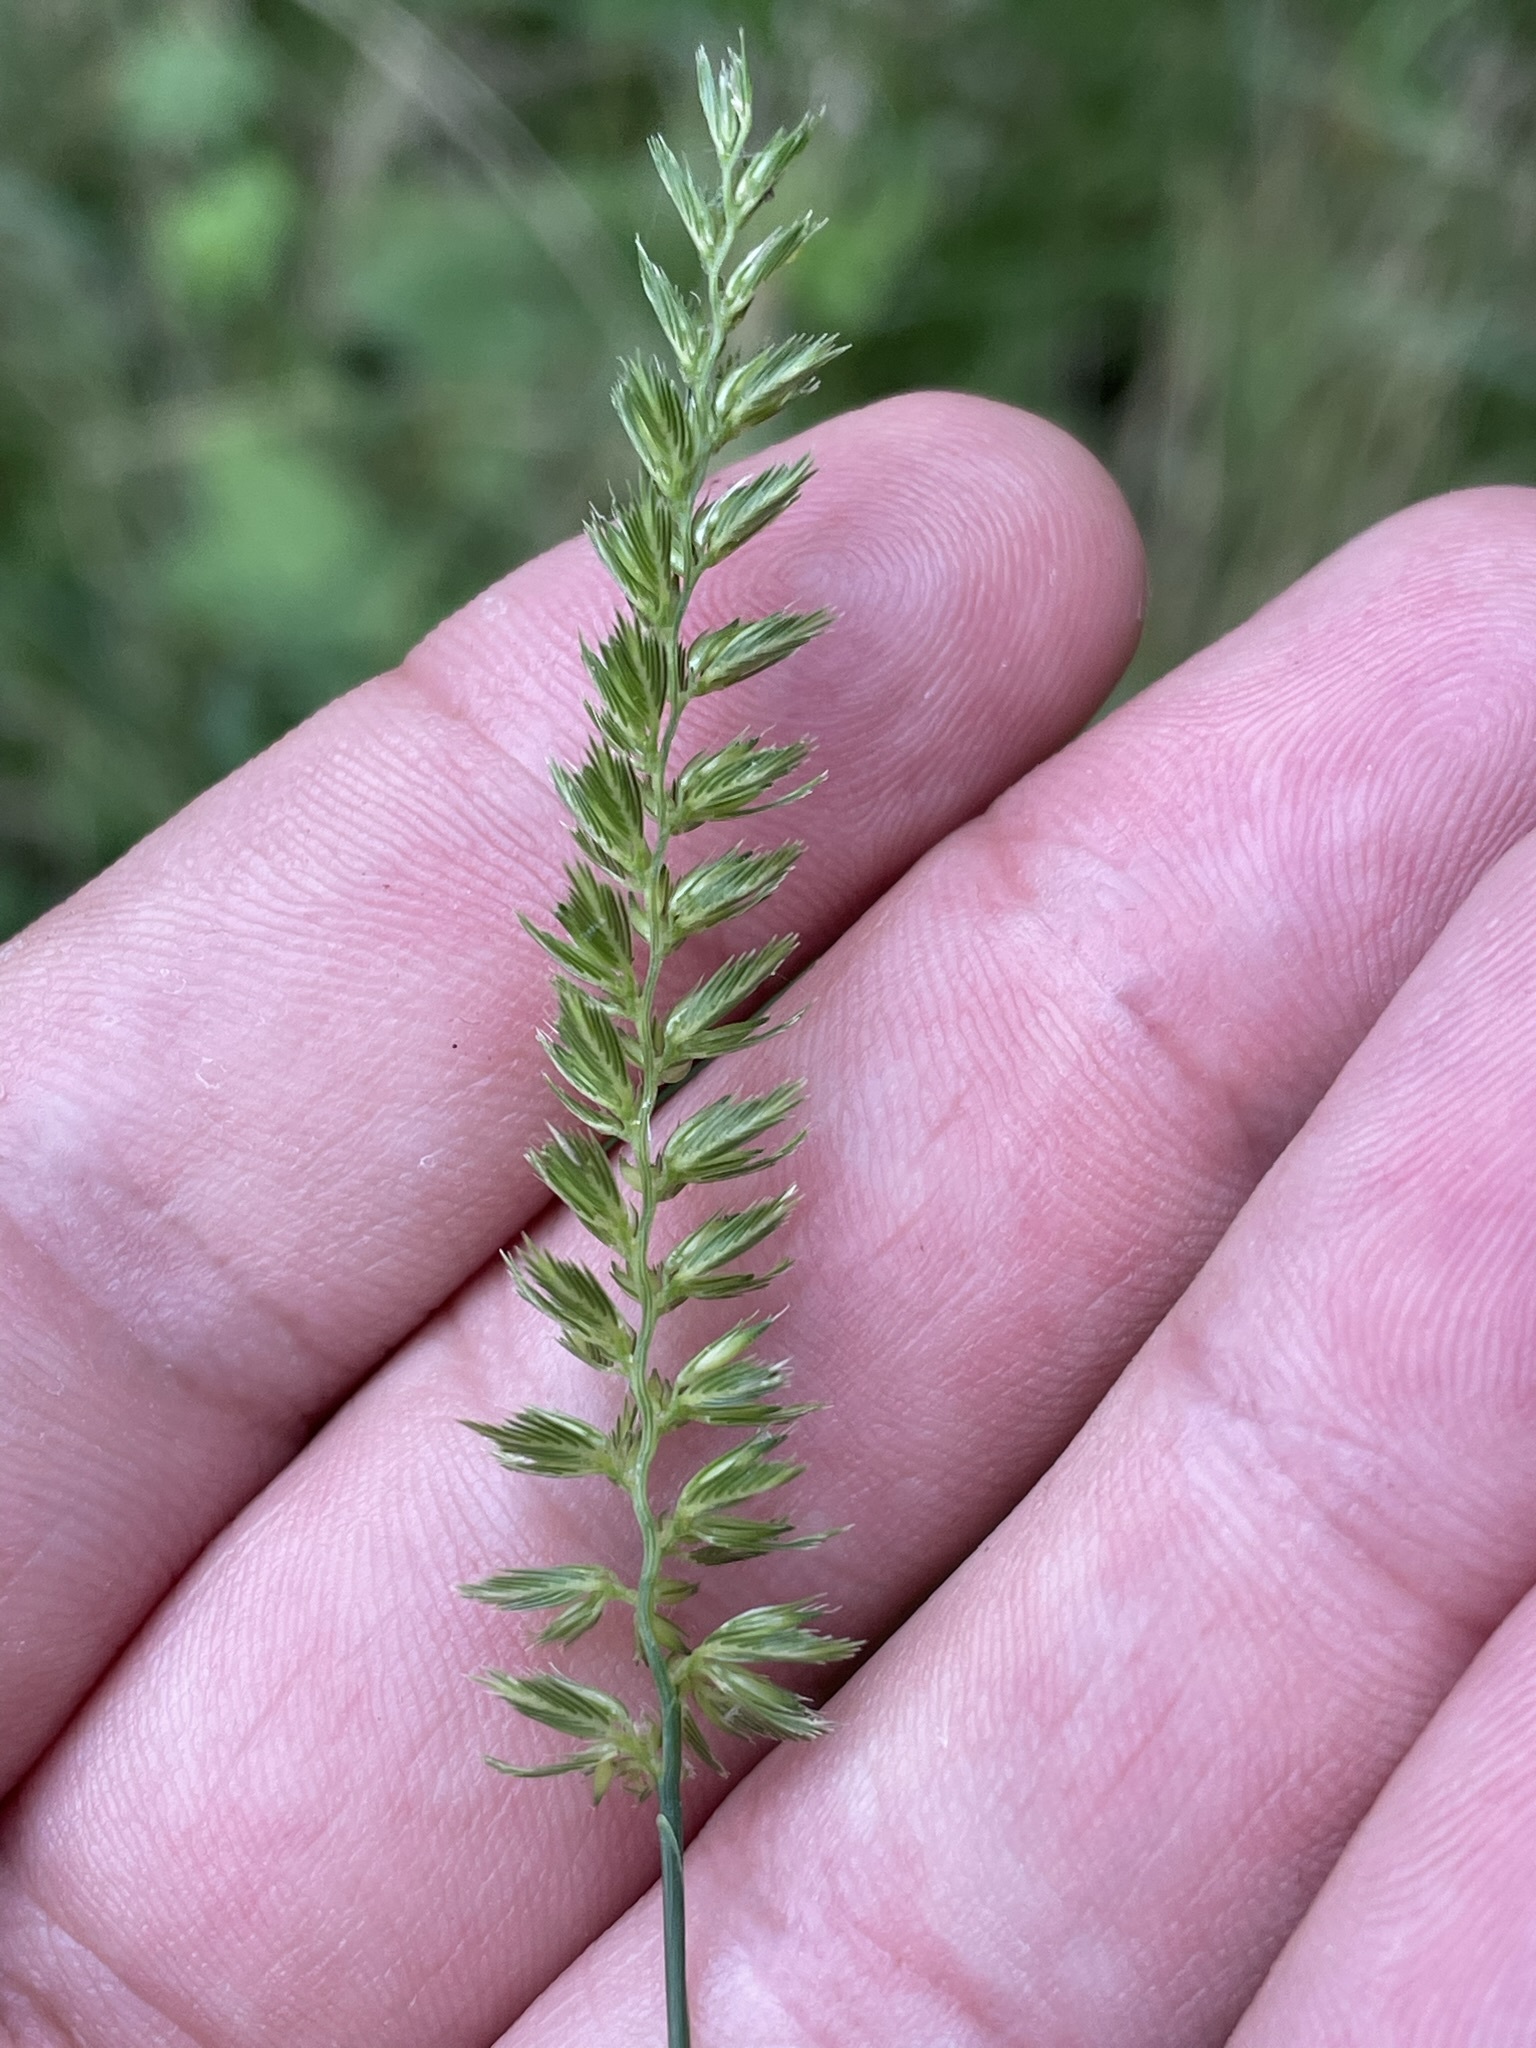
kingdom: Plantae
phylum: Tracheophyta
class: Liliopsida
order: Poales
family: Poaceae
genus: Cynosurus
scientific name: Cynosurus cristatus
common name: Crested dog's-tail
